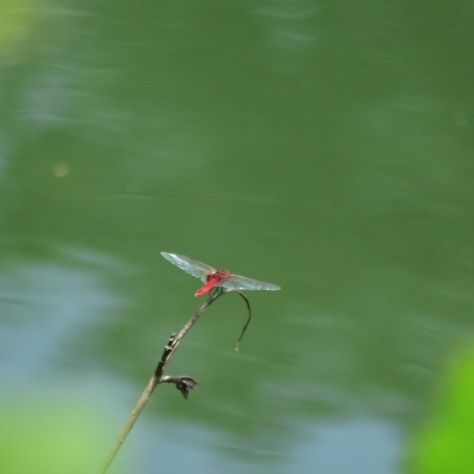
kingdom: Animalia
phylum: Arthropoda
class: Insecta
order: Odonata
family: Libellulidae
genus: Urothemis
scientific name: Urothemis signata
